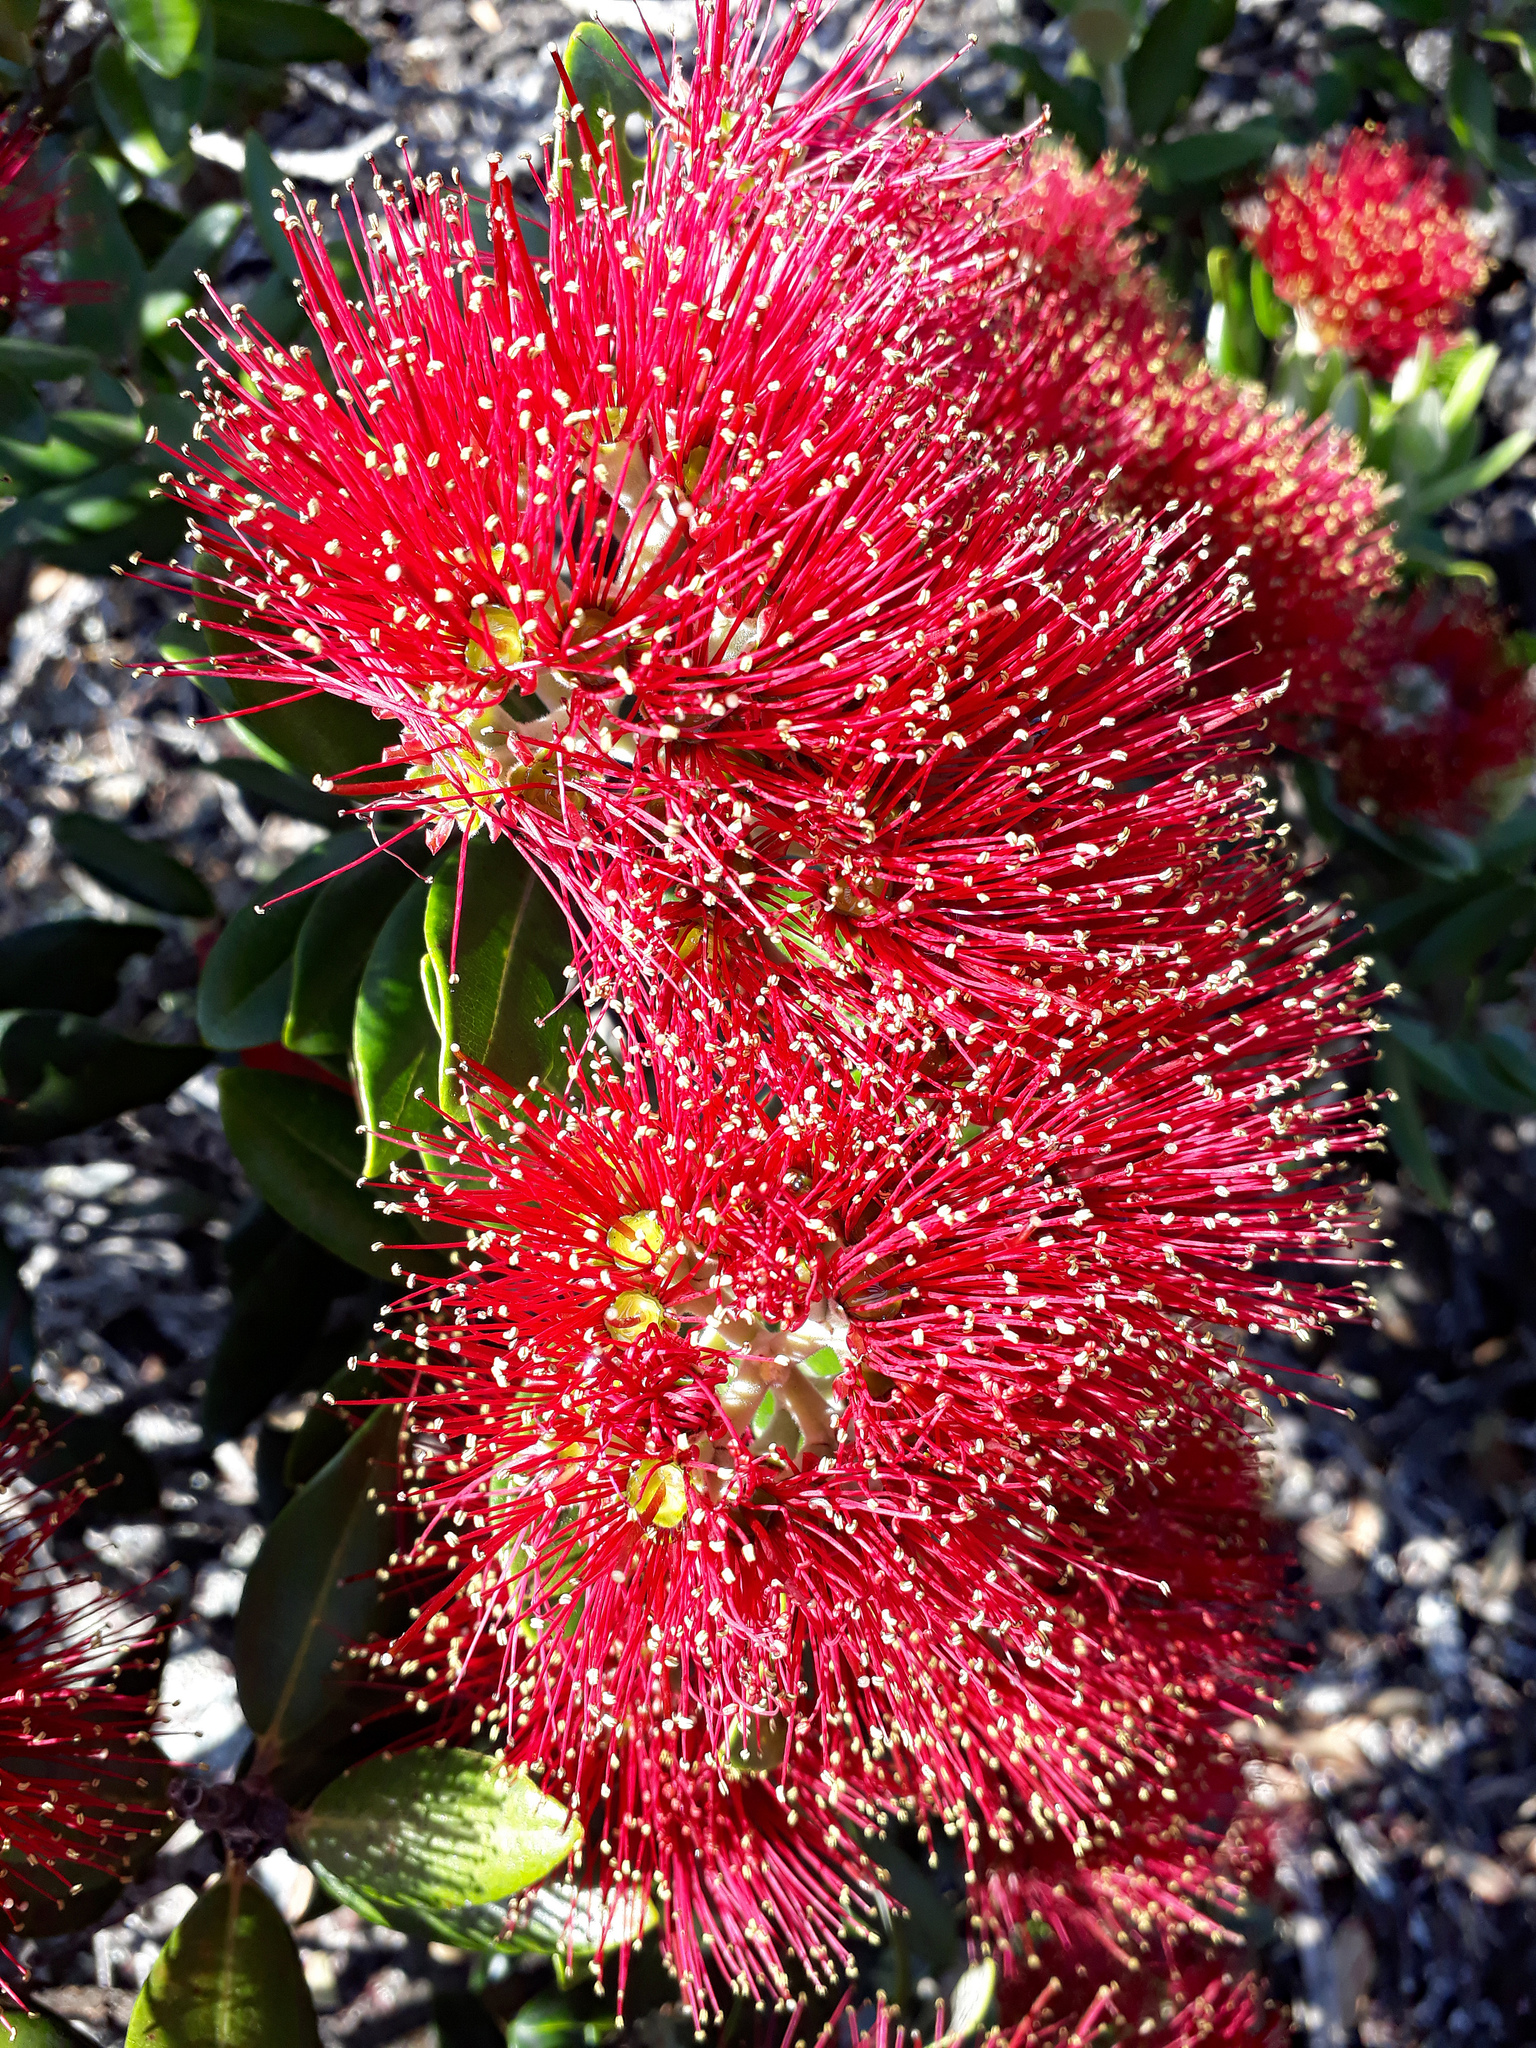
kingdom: Plantae
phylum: Tracheophyta
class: Magnoliopsida
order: Myrtales
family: Myrtaceae
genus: Metrosideros
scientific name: Metrosideros excelsa
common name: New zealand christmastree
